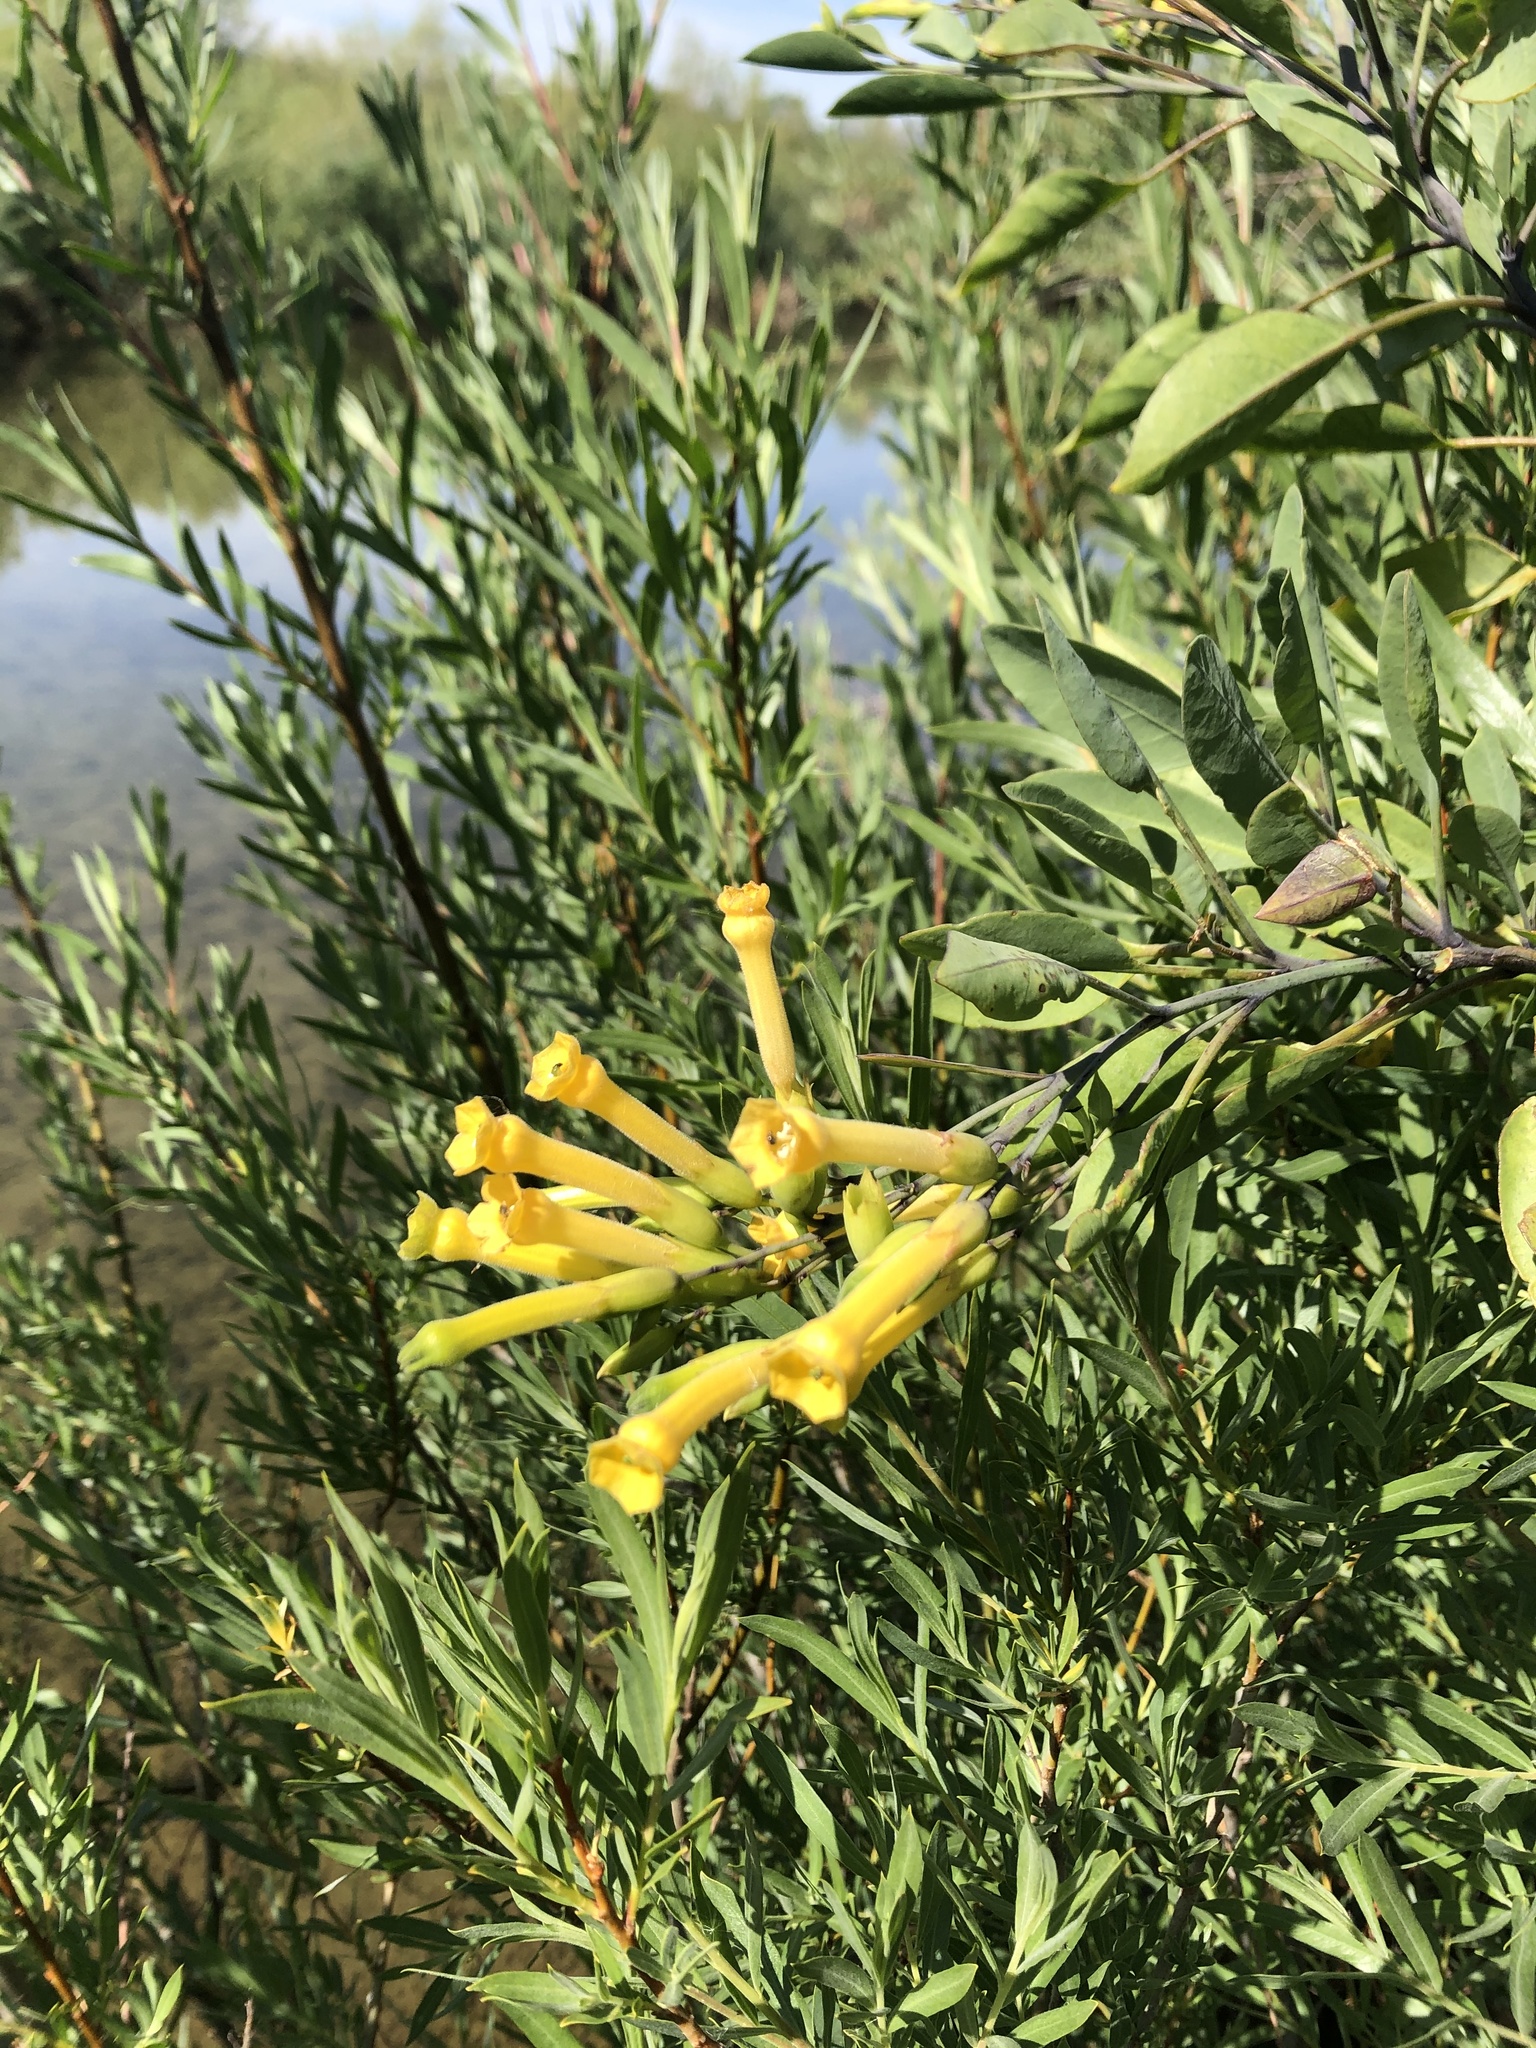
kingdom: Plantae
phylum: Tracheophyta
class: Magnoliopsida
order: Solanales
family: Solanaceae
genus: Nicotiana
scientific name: Nicotiana glauca
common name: Tree tobacco
